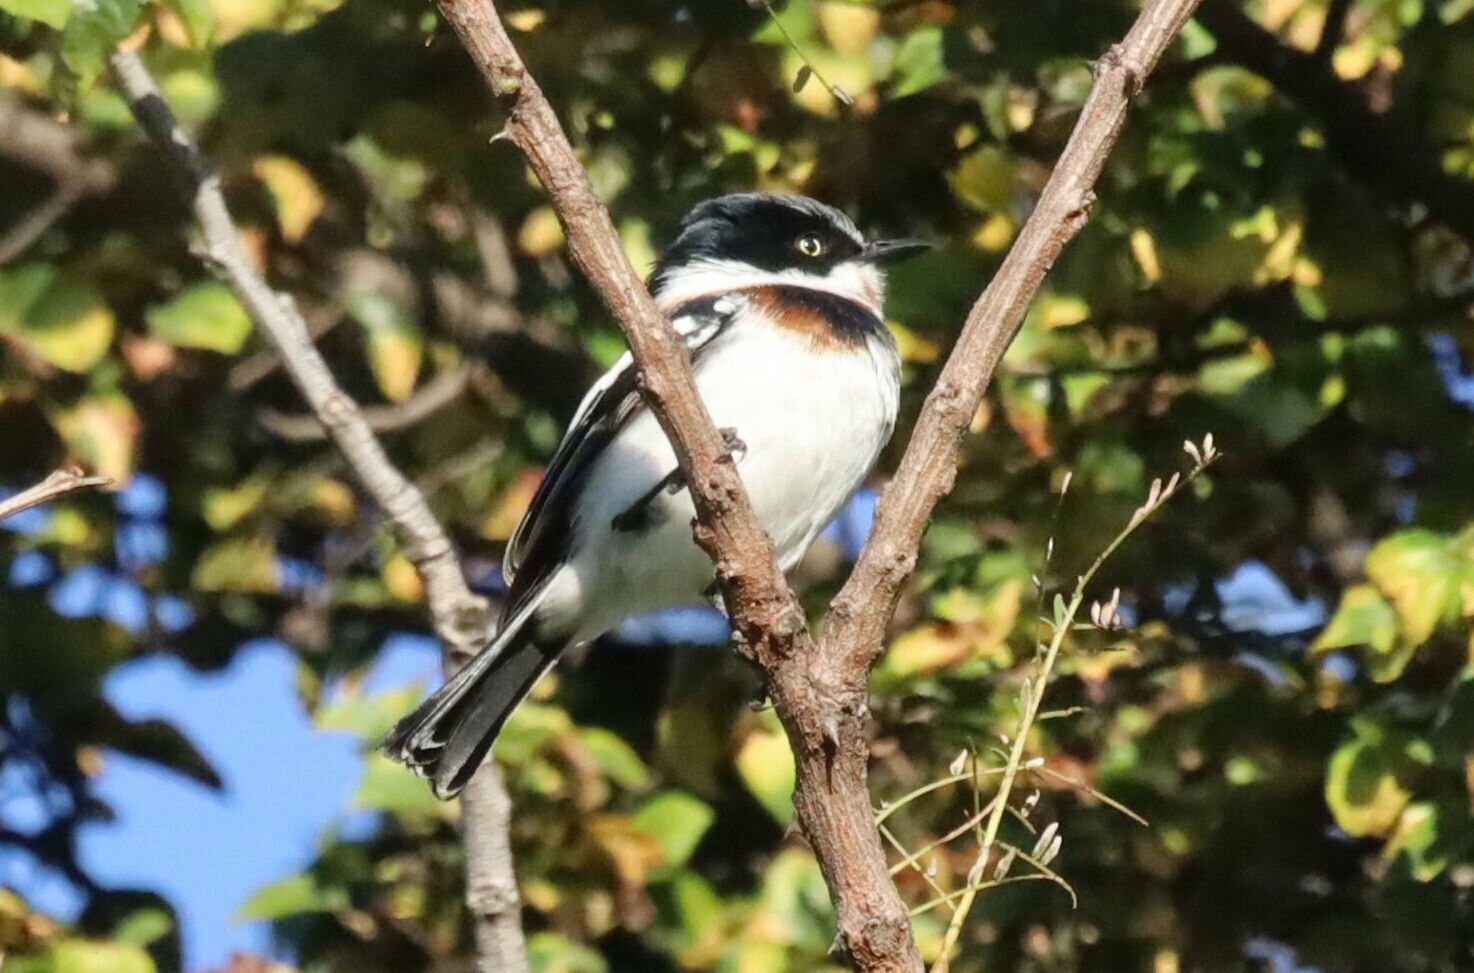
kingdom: Animalia
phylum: Chordata
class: Aves
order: Passeriformes
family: Platysteiridae
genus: Batis
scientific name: Batis molitor
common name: Chinspot batis
